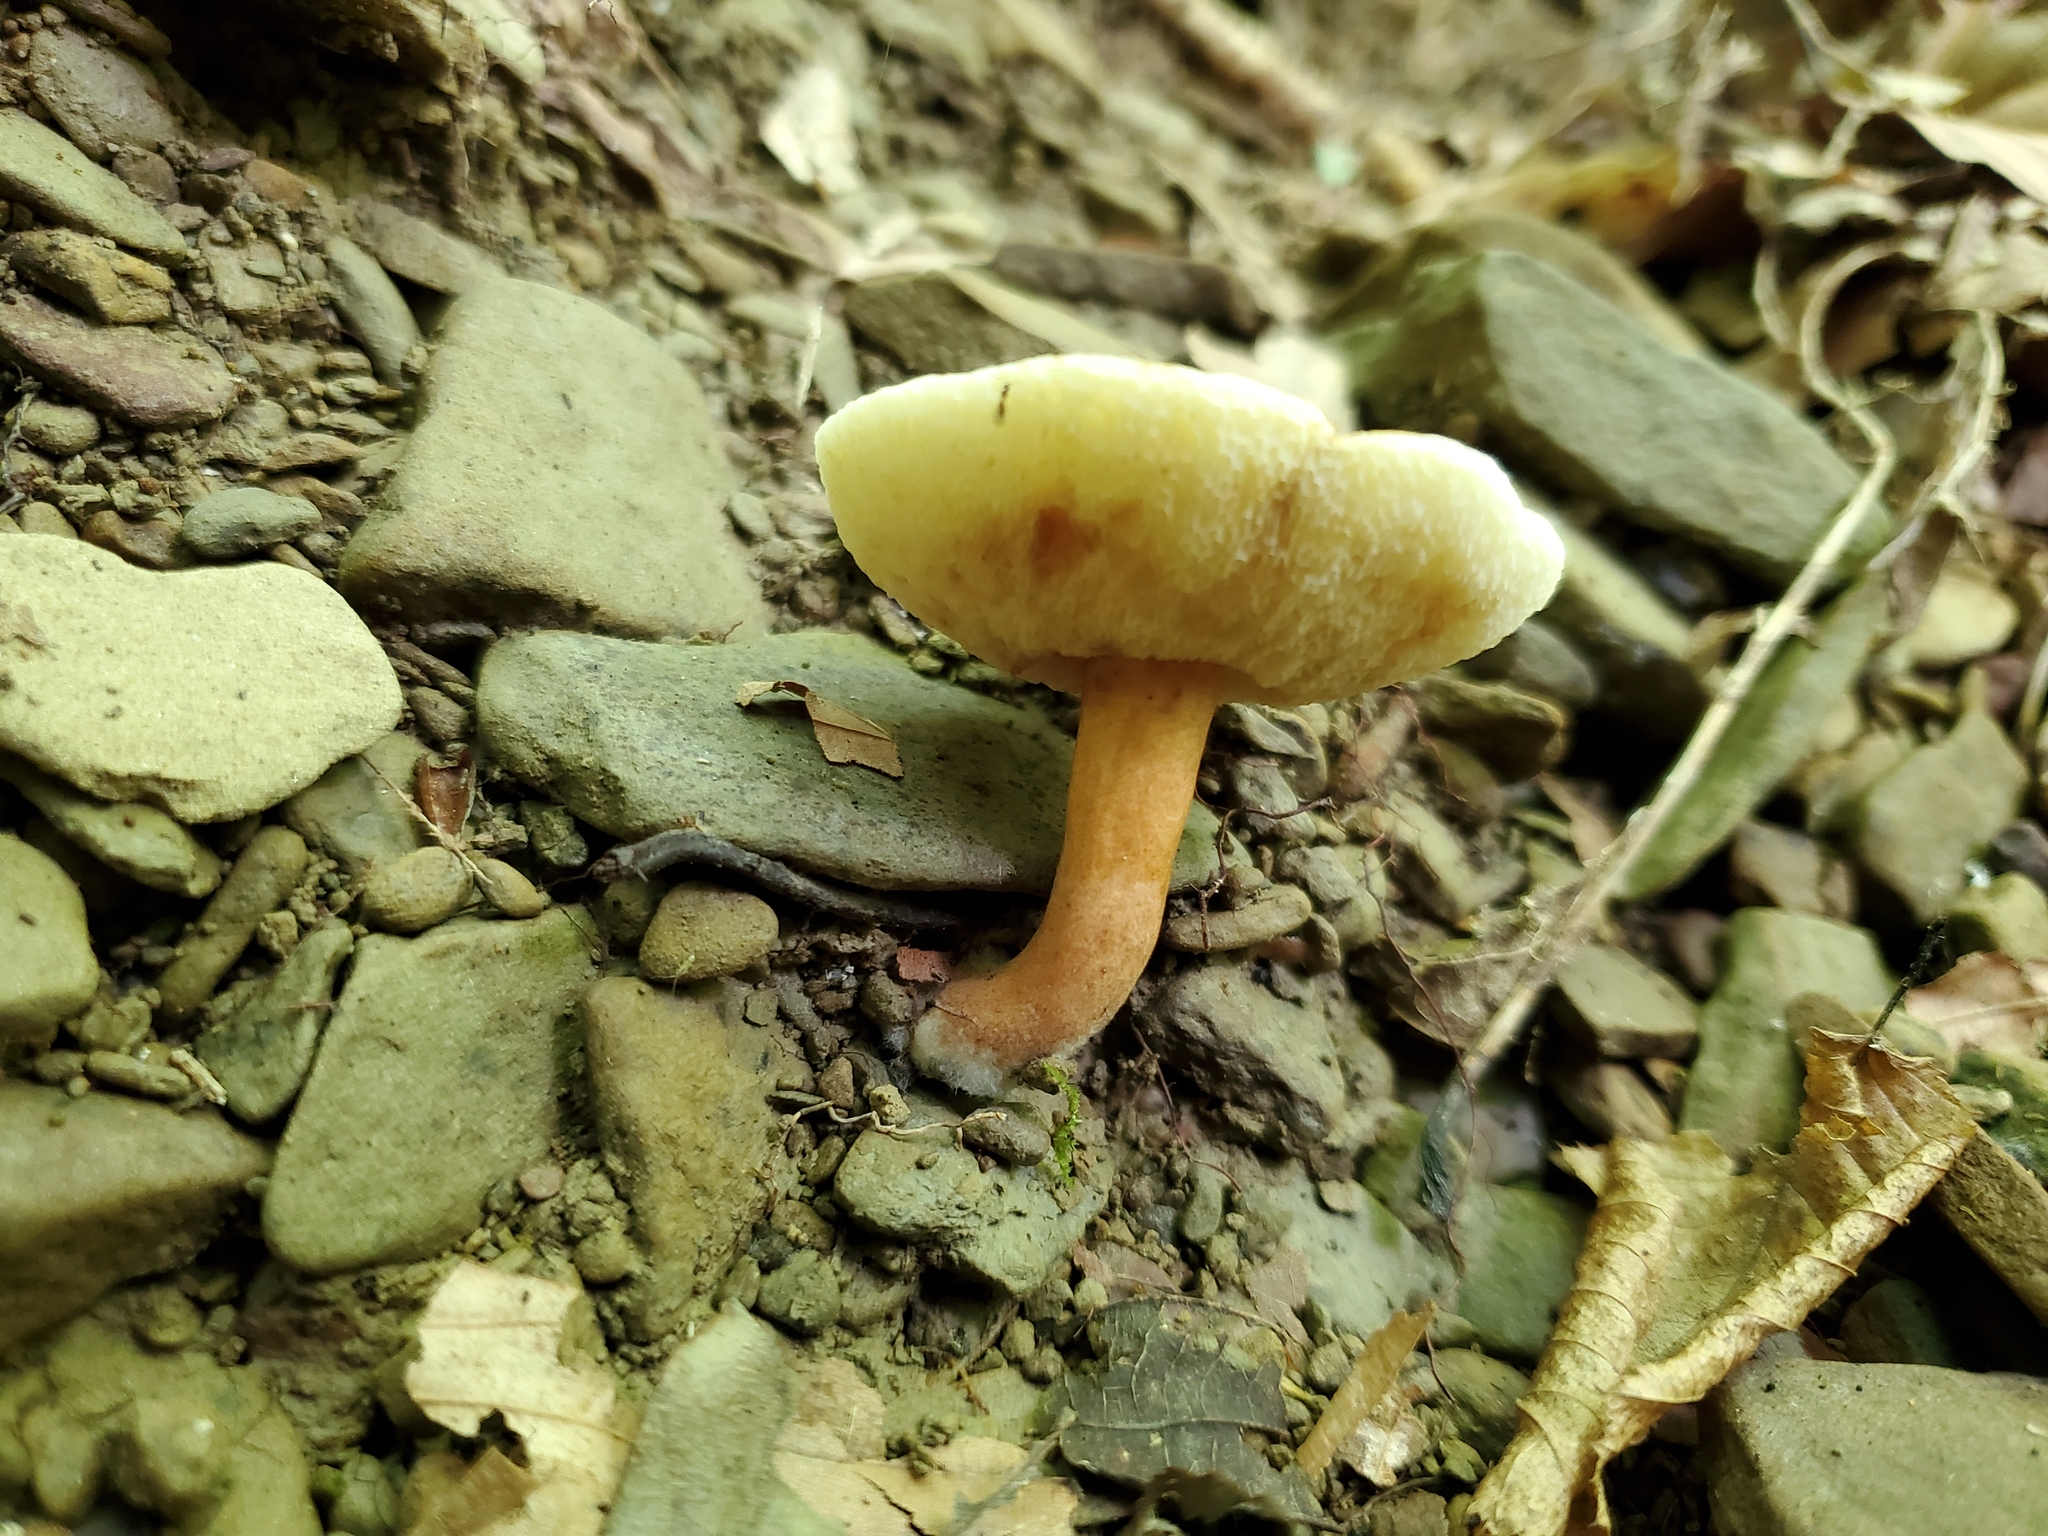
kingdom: Fungi
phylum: Basidiomycota
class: Agaricomycetes
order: Boletales
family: Gyroporaceae
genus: Gyroporus
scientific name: Gyroporus castaneus
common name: Chestnut bolete
